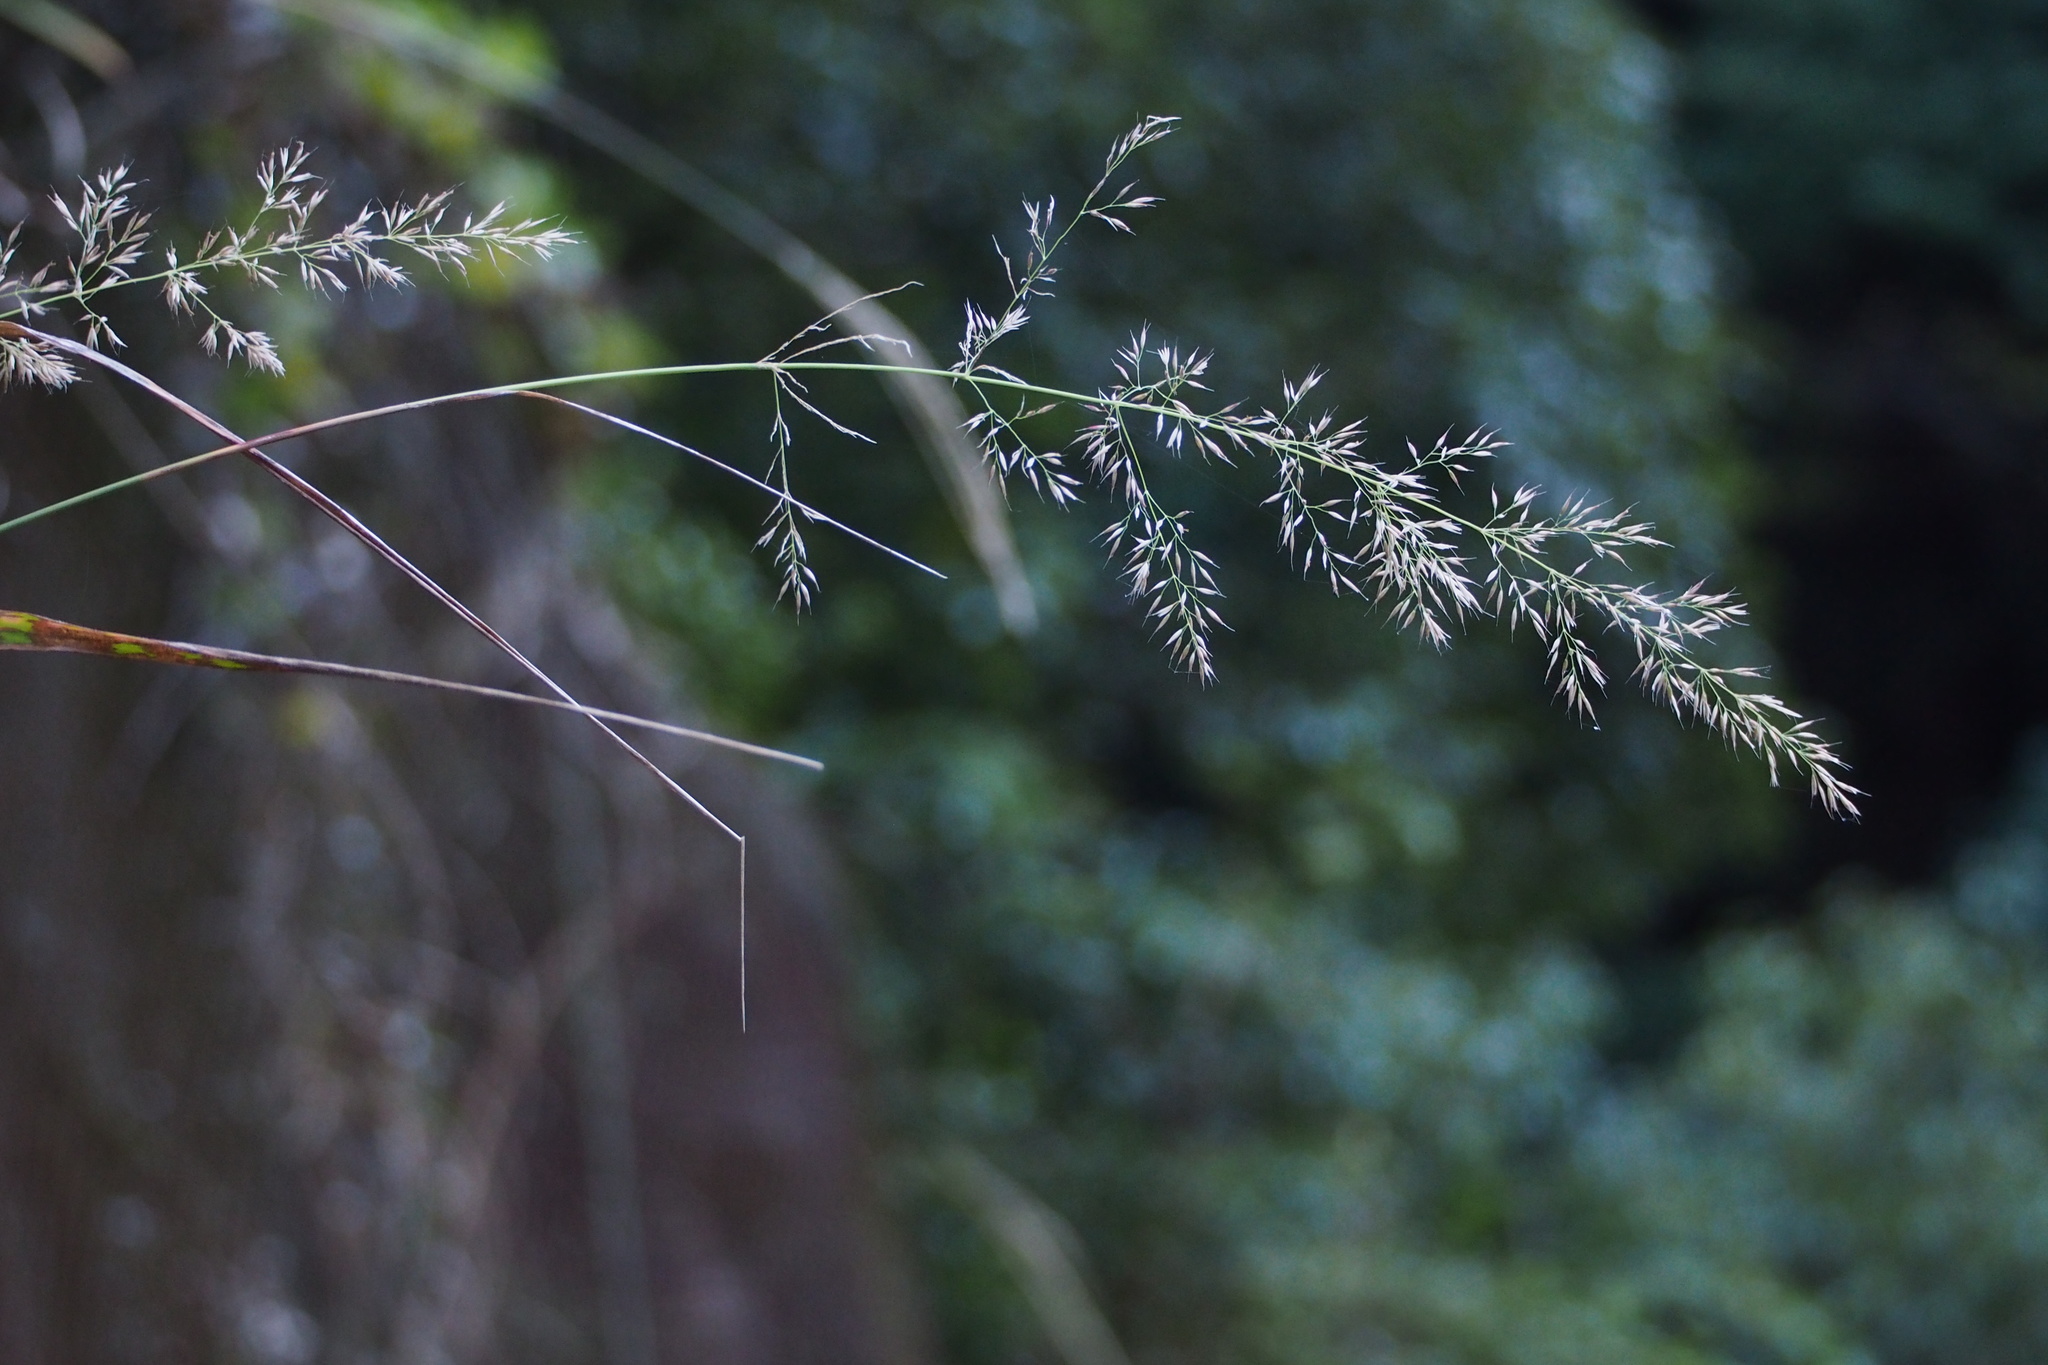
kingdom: Plantae
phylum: Tracheophyta
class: Liliopsida
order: Poales
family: Poaceae
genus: Calamagrostis
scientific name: Calamagrostis arundinacea
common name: Metskastik
